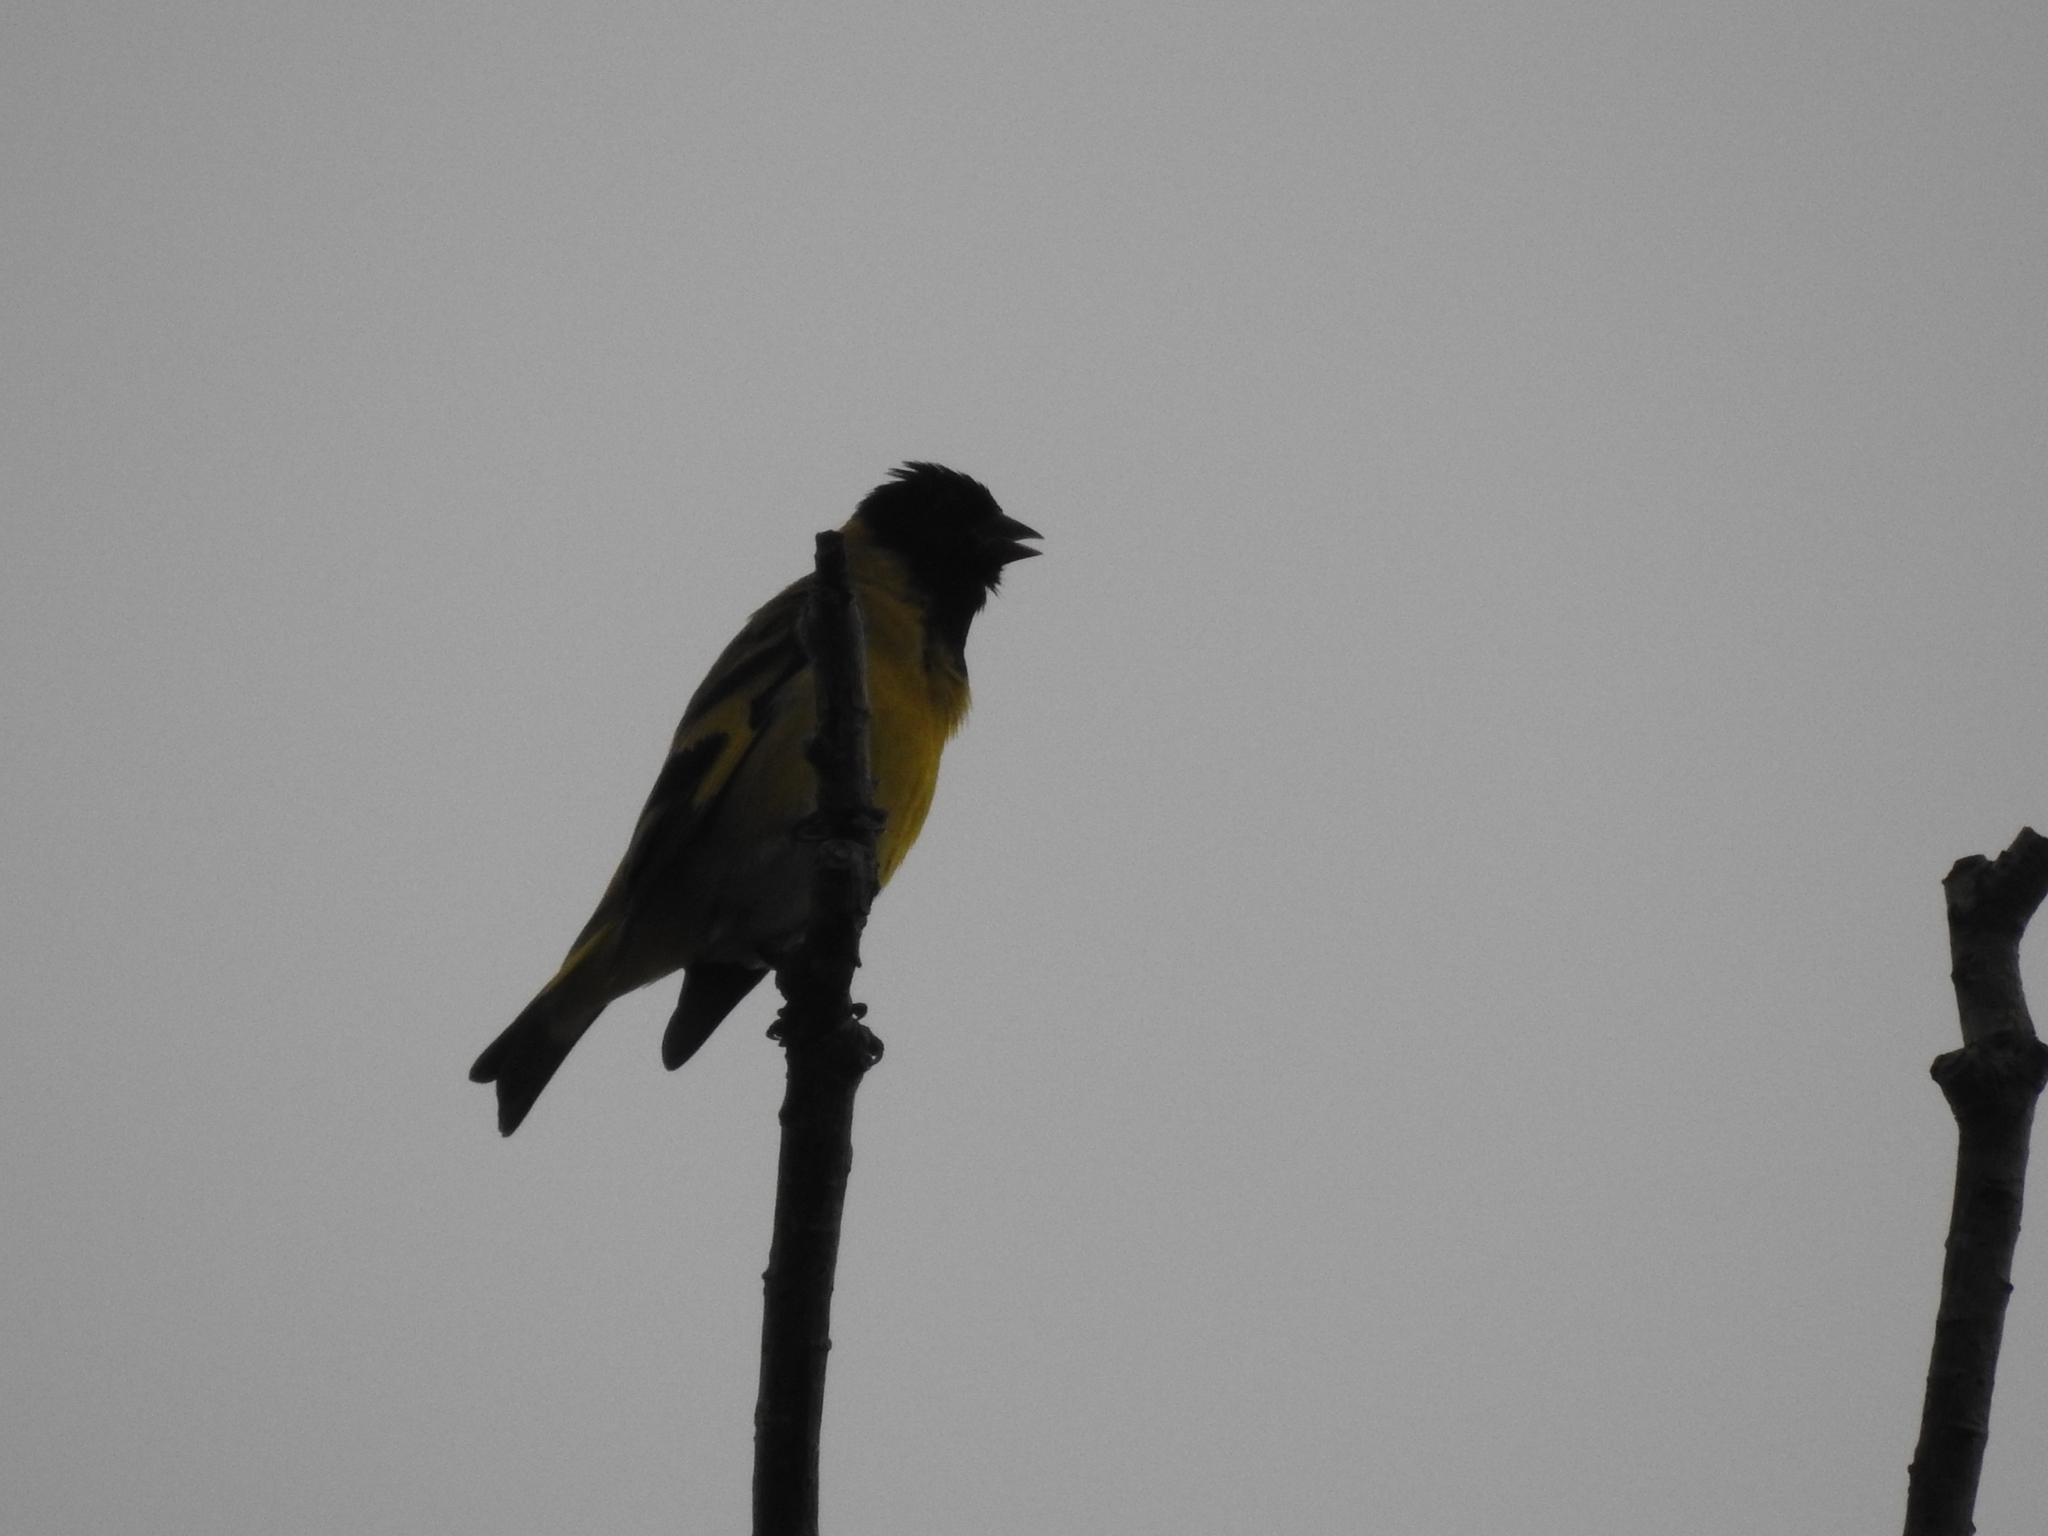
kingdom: Animalia
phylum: Chordata
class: Aves
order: Passeriformes
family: Fringillidae
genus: Spinus
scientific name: Spinus magellanicus
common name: Hooded siskin
